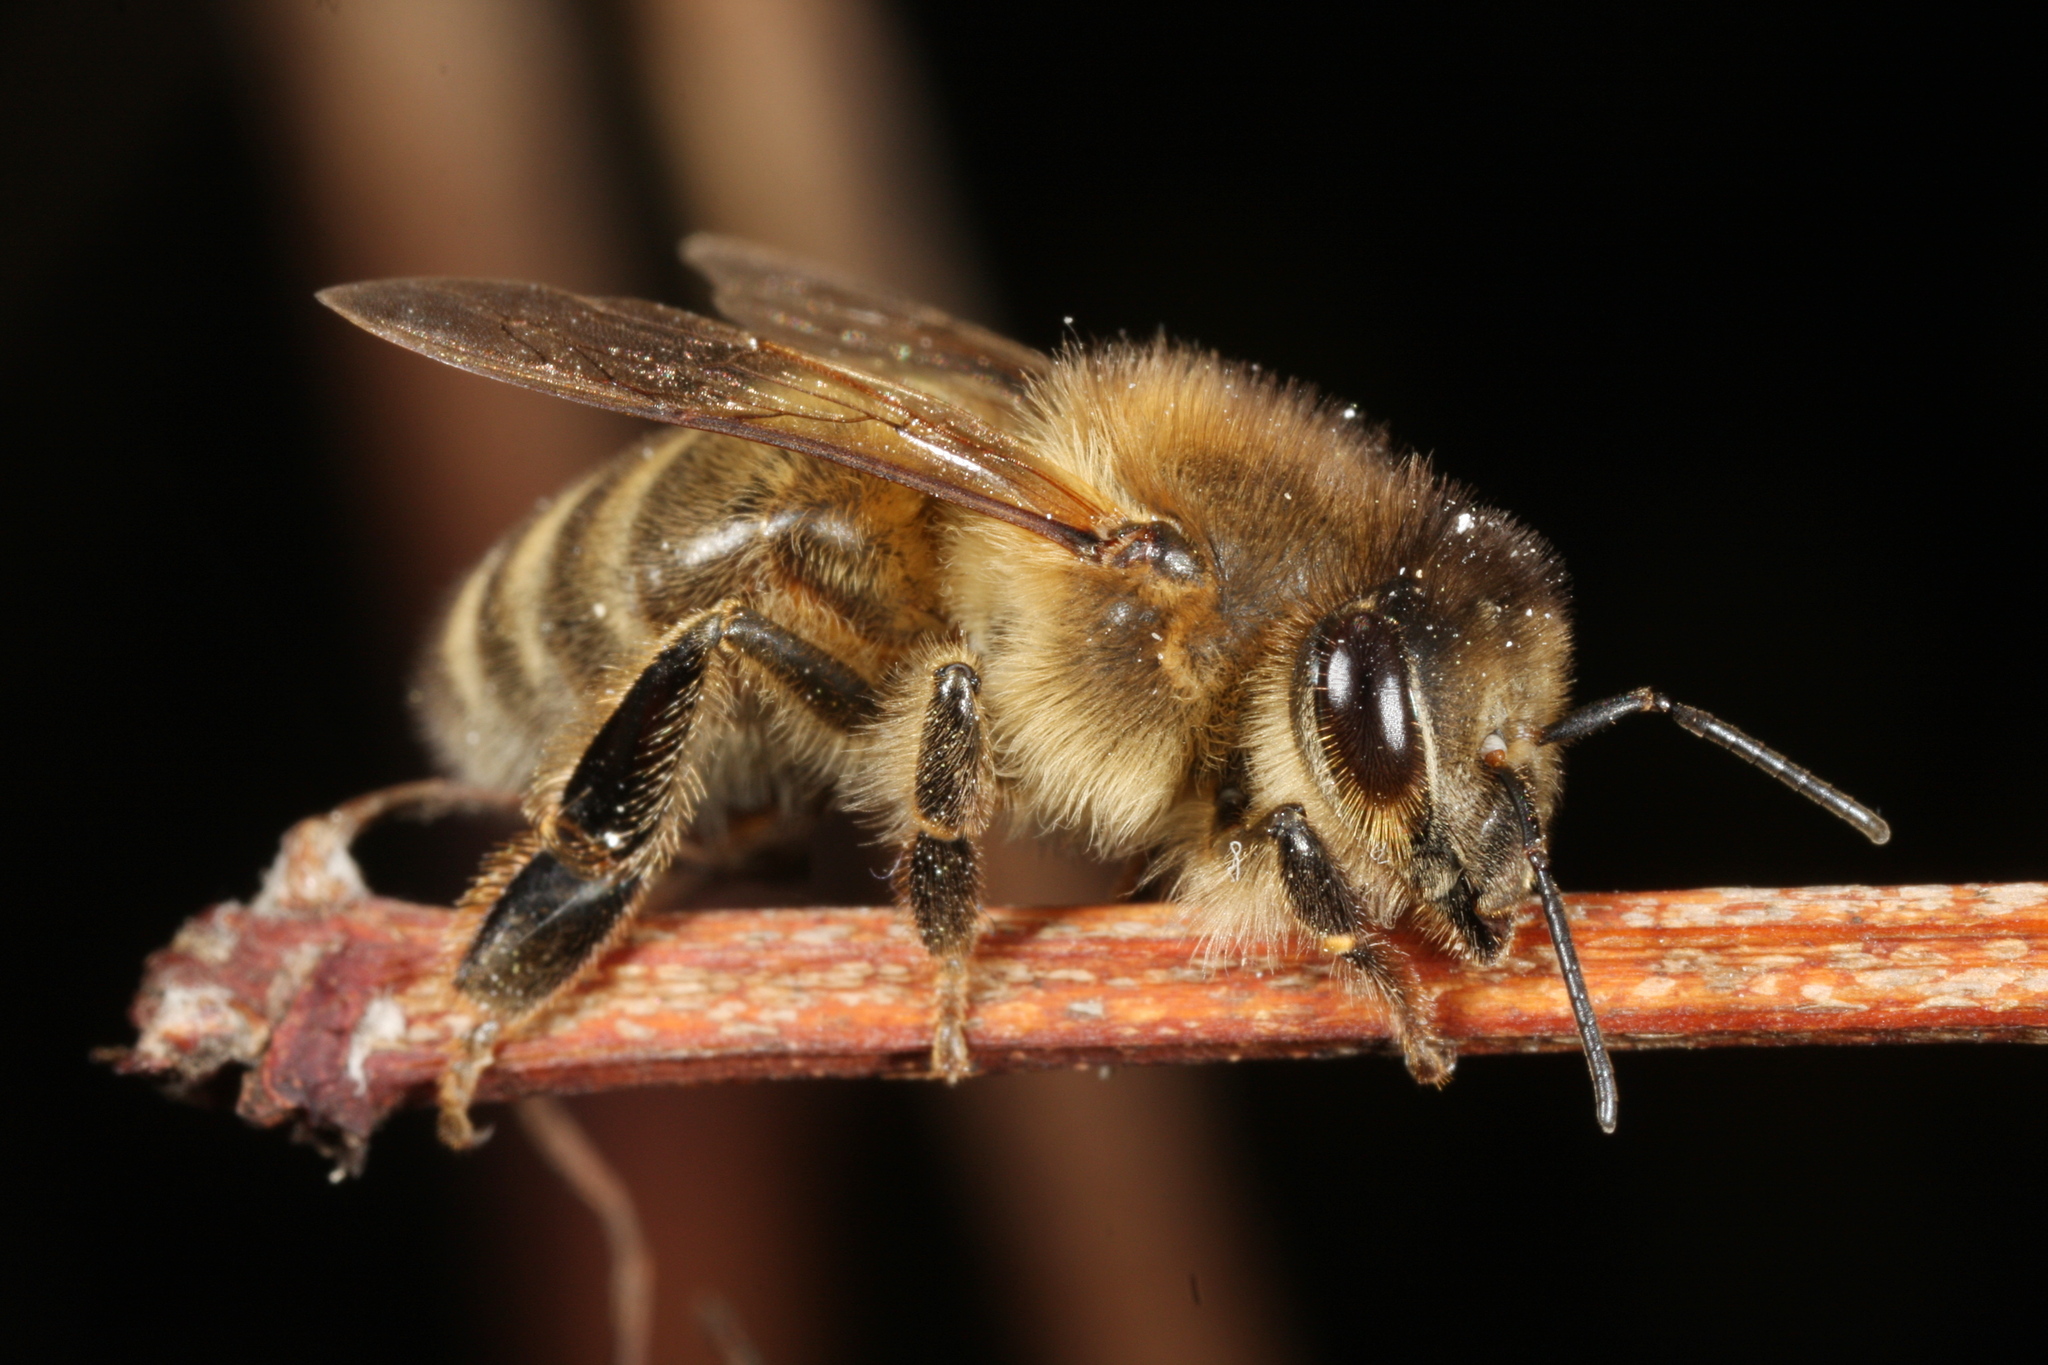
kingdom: Animalia
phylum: Arthropoda
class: Insecta
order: Hymenoptera
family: Apidae
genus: Apis
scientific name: Apis mellifera
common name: Honey bee
